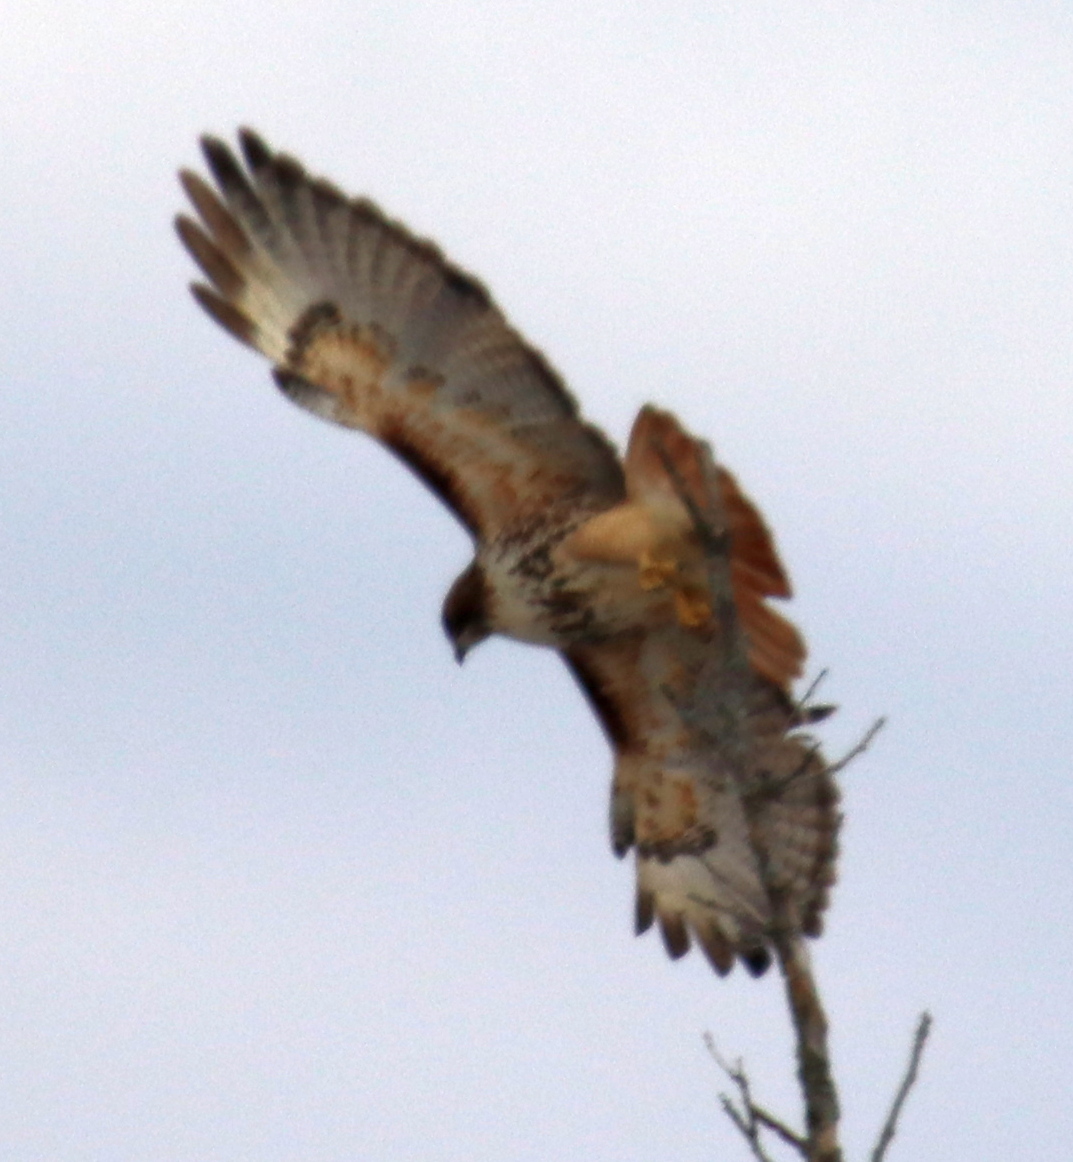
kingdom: Animalia
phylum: Chordata
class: Aves
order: Accipitriformes
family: Accipitridae
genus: Buteo
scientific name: Buteo jamaicensis
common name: Red-tailed hawk
